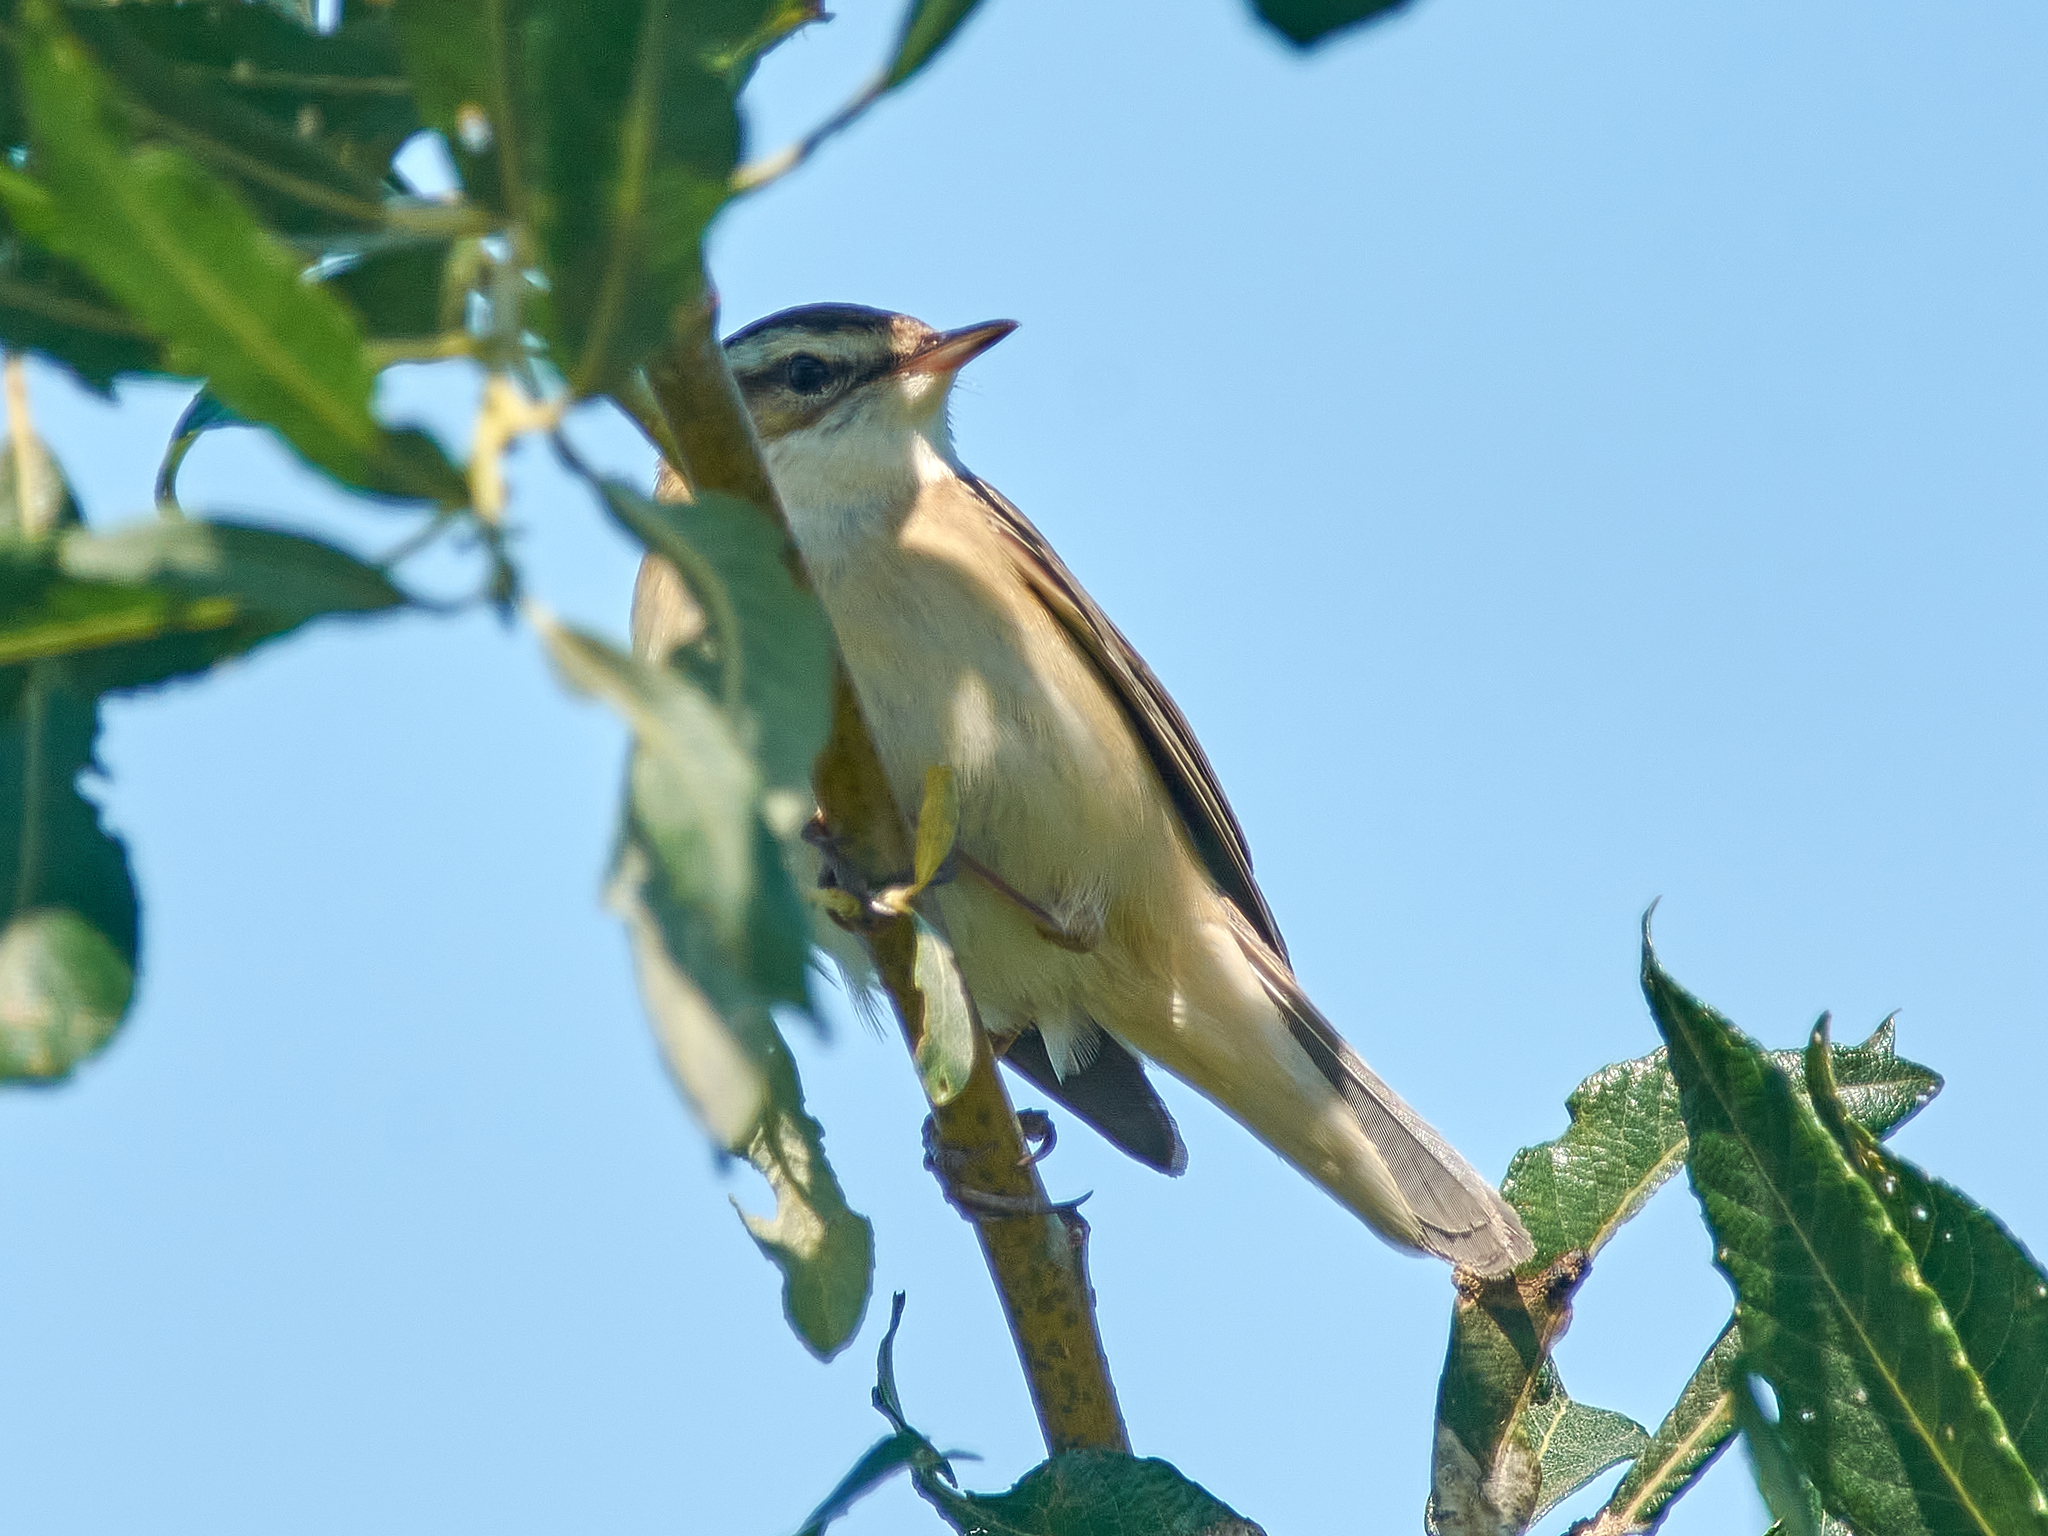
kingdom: Animalia
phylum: Chordata
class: Aves
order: Passeriformes
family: Acrocephalidae
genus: Acrocephalus
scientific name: Acrocephalus schoenobaenus
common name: Sedge warbler
